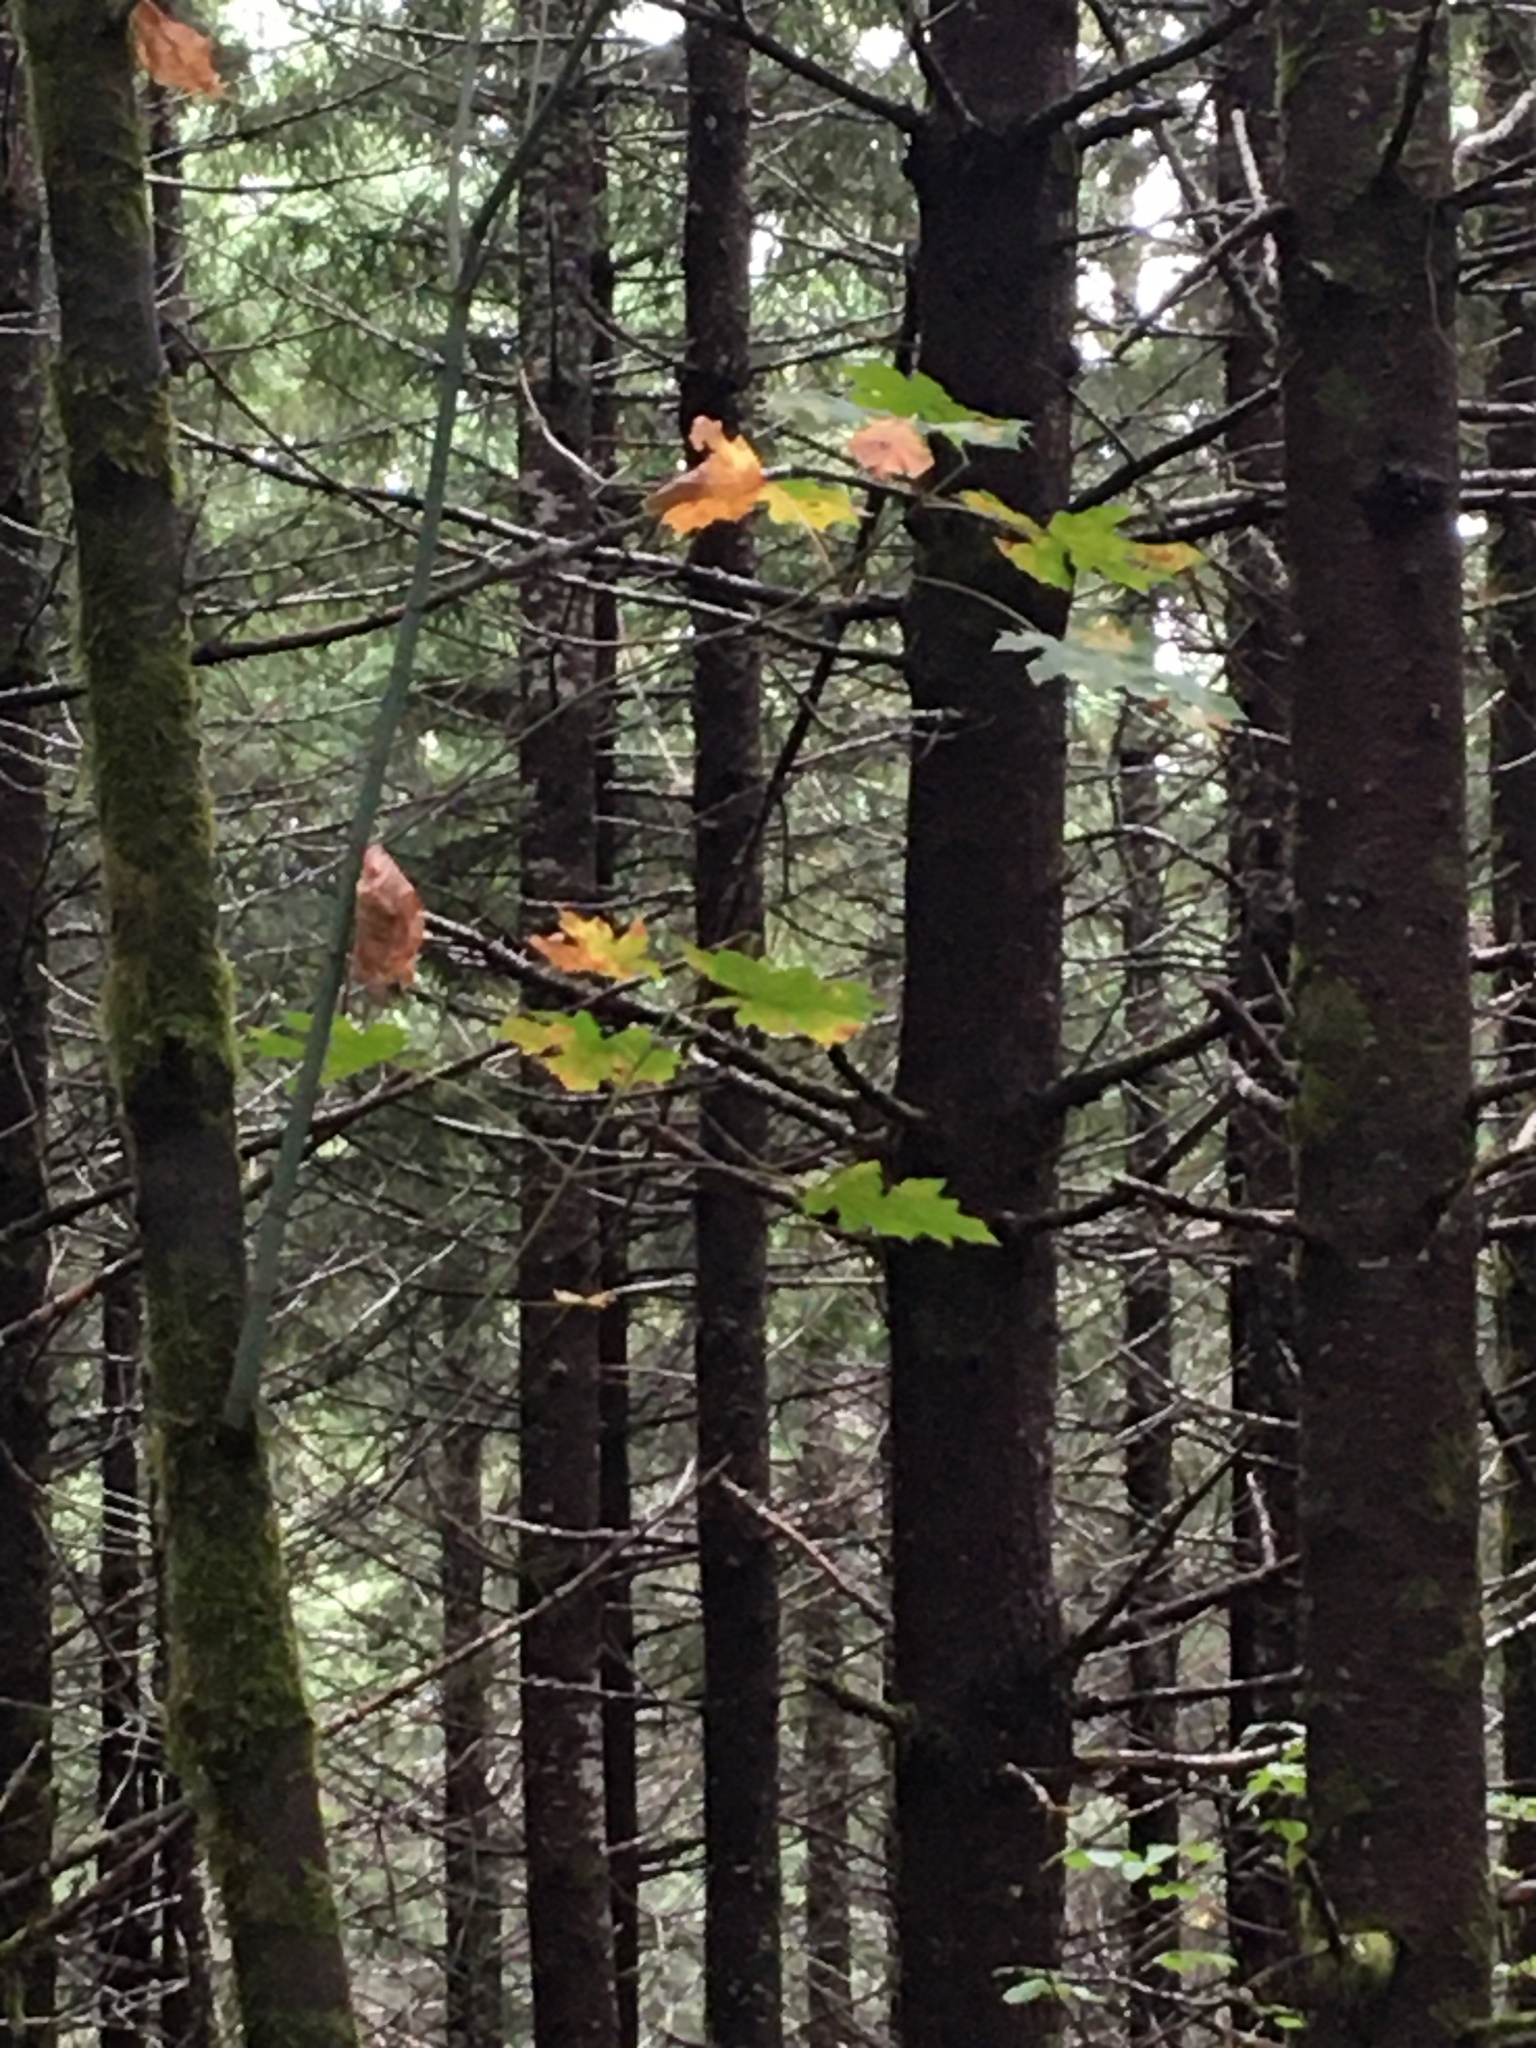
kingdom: Plantae
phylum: Tracheophyta
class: Magnoliopsida
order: Sapindales
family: Sapindaceae
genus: Acer
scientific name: Acer macrophyllum
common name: Oregon maple
